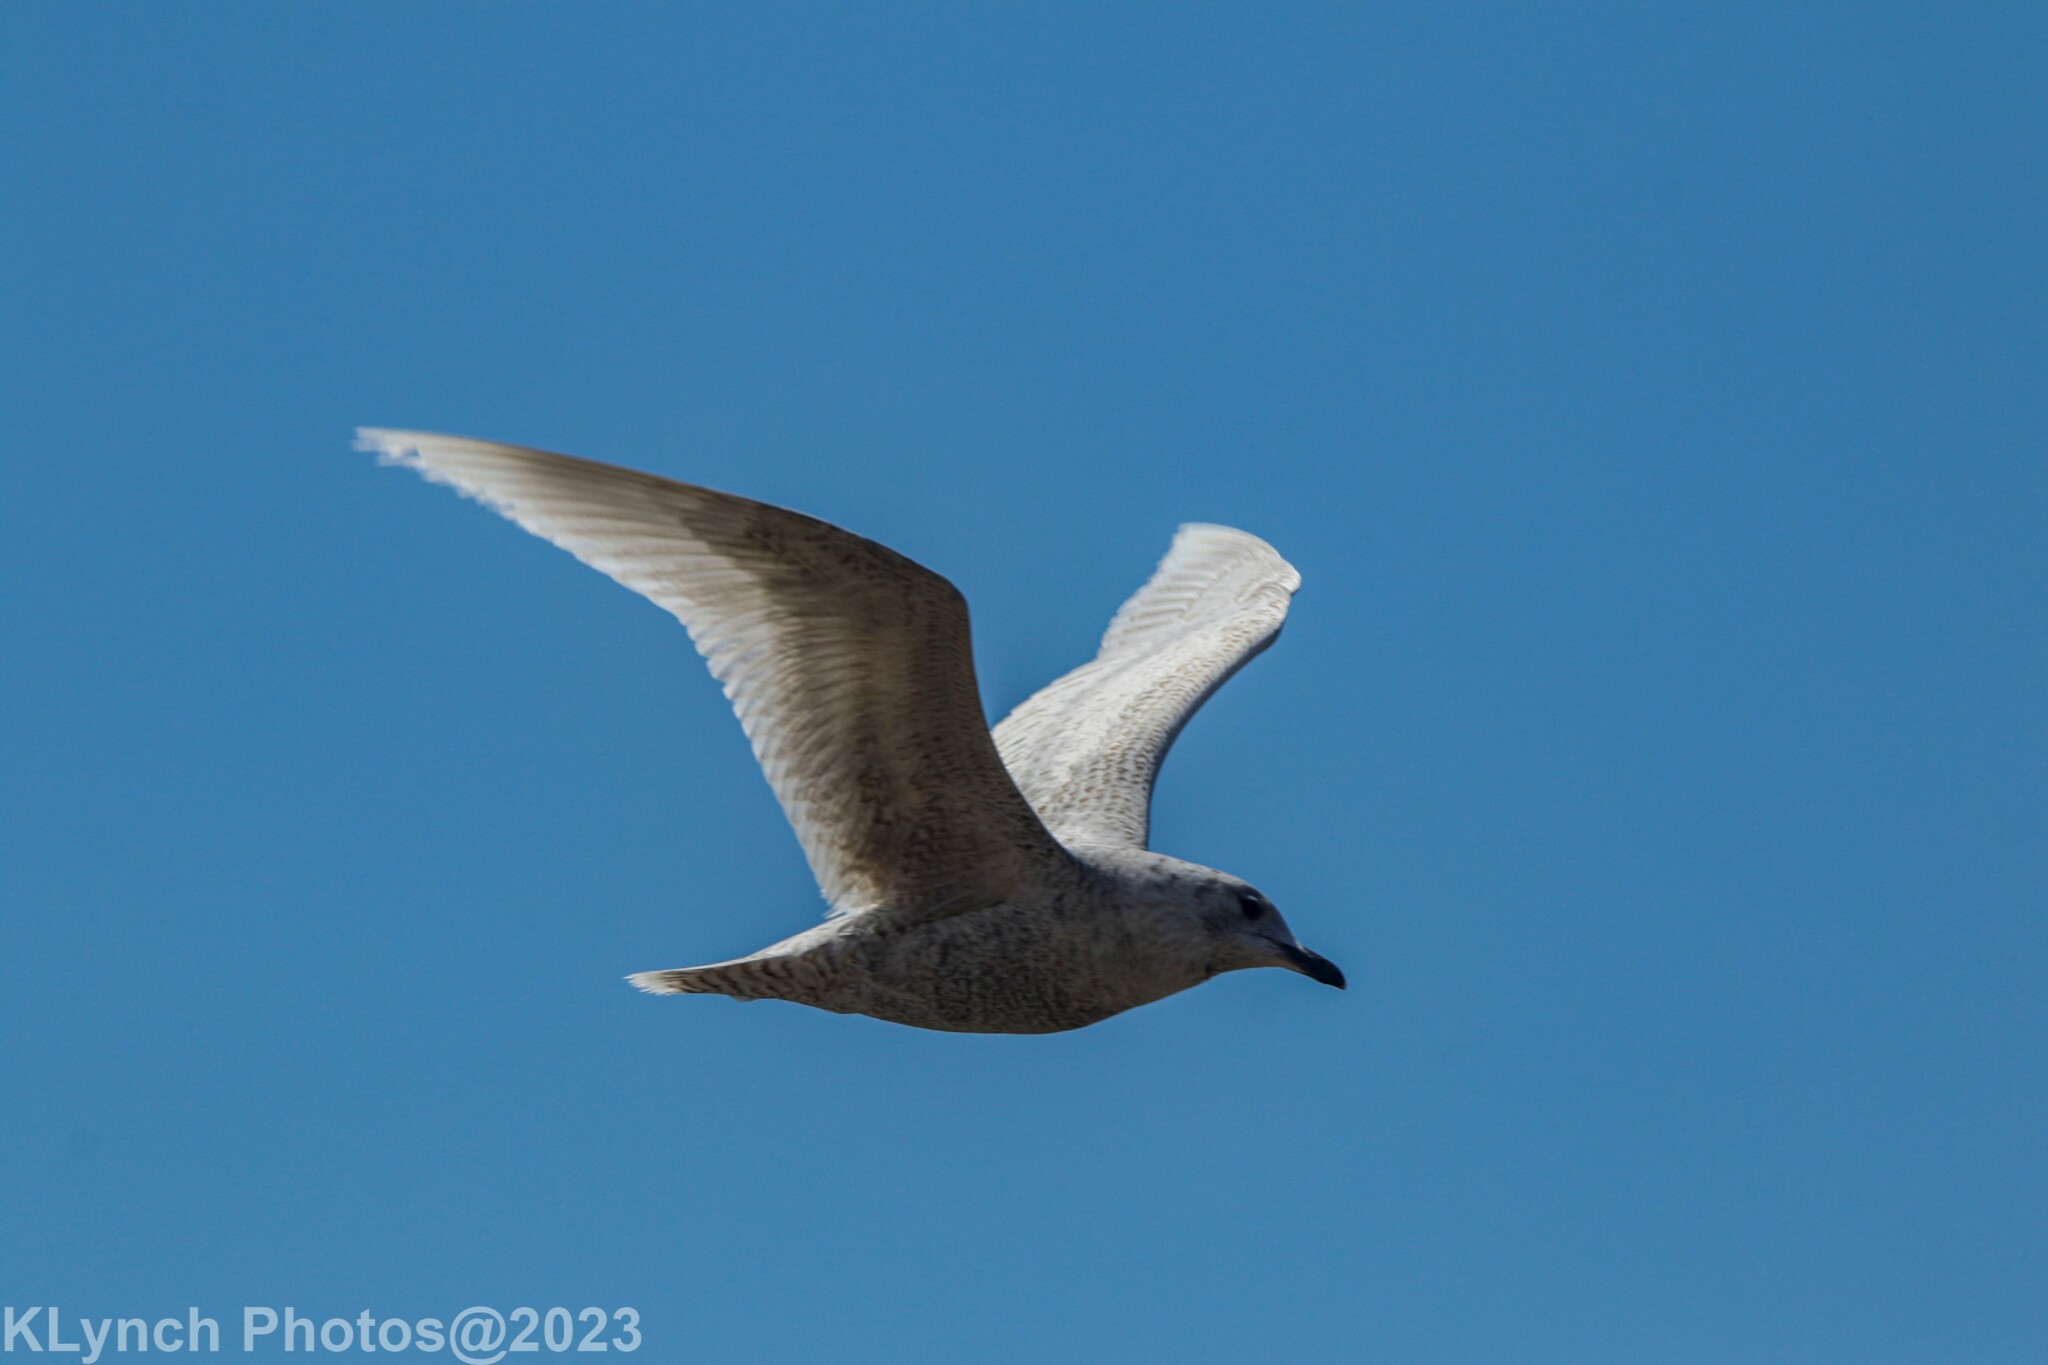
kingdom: Animalia
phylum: Chordata
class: Aves
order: Charadriiformes
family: Laridae
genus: Larus
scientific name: Larus marinus
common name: Great black-backed gull
